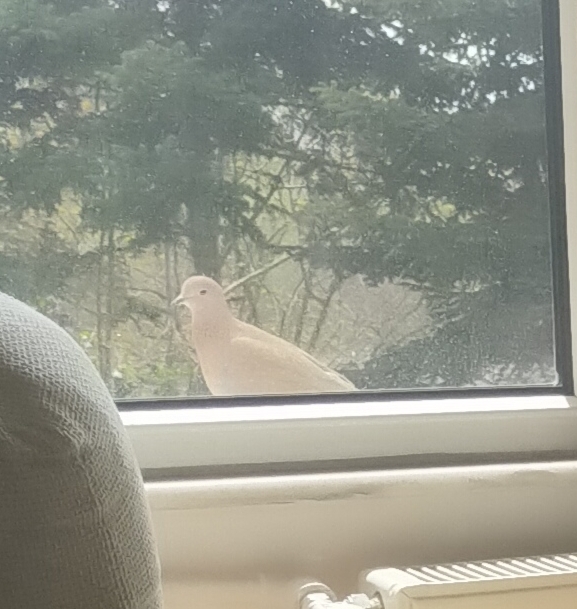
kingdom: Animalia
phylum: Chordata
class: Aves
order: Columbiformes
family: Columbidae
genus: Spilopelia
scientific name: Spilopelia senegalensis
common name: Laughing dove
